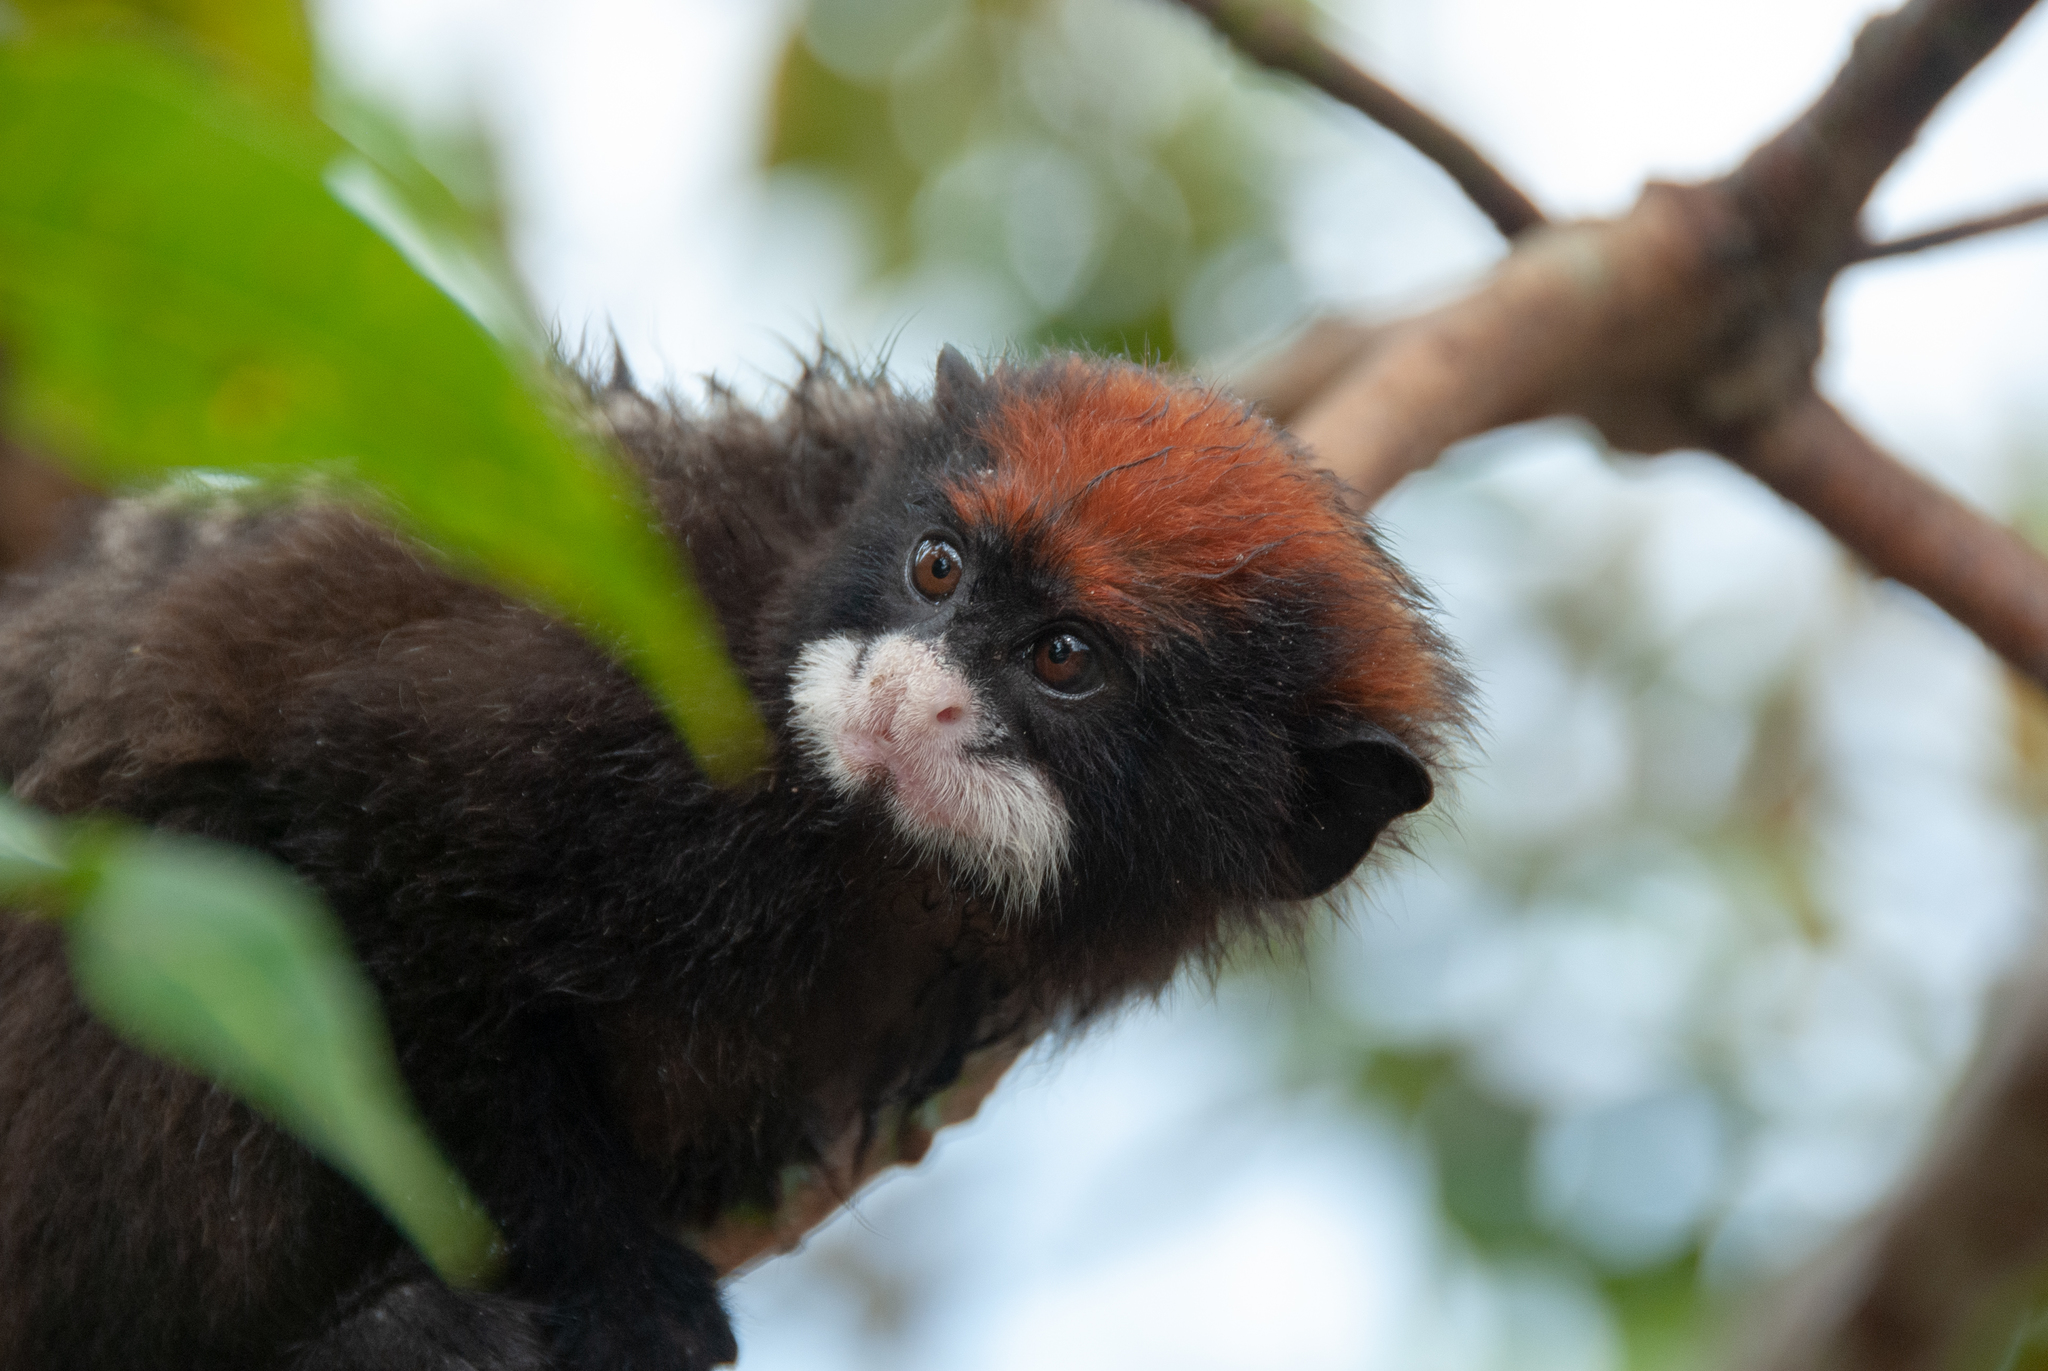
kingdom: Animalia
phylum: Chordata
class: Mammalia
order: Primates
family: Callitrichidae
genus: Saguinus
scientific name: Saguinus mystax
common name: Moustached tamarin
